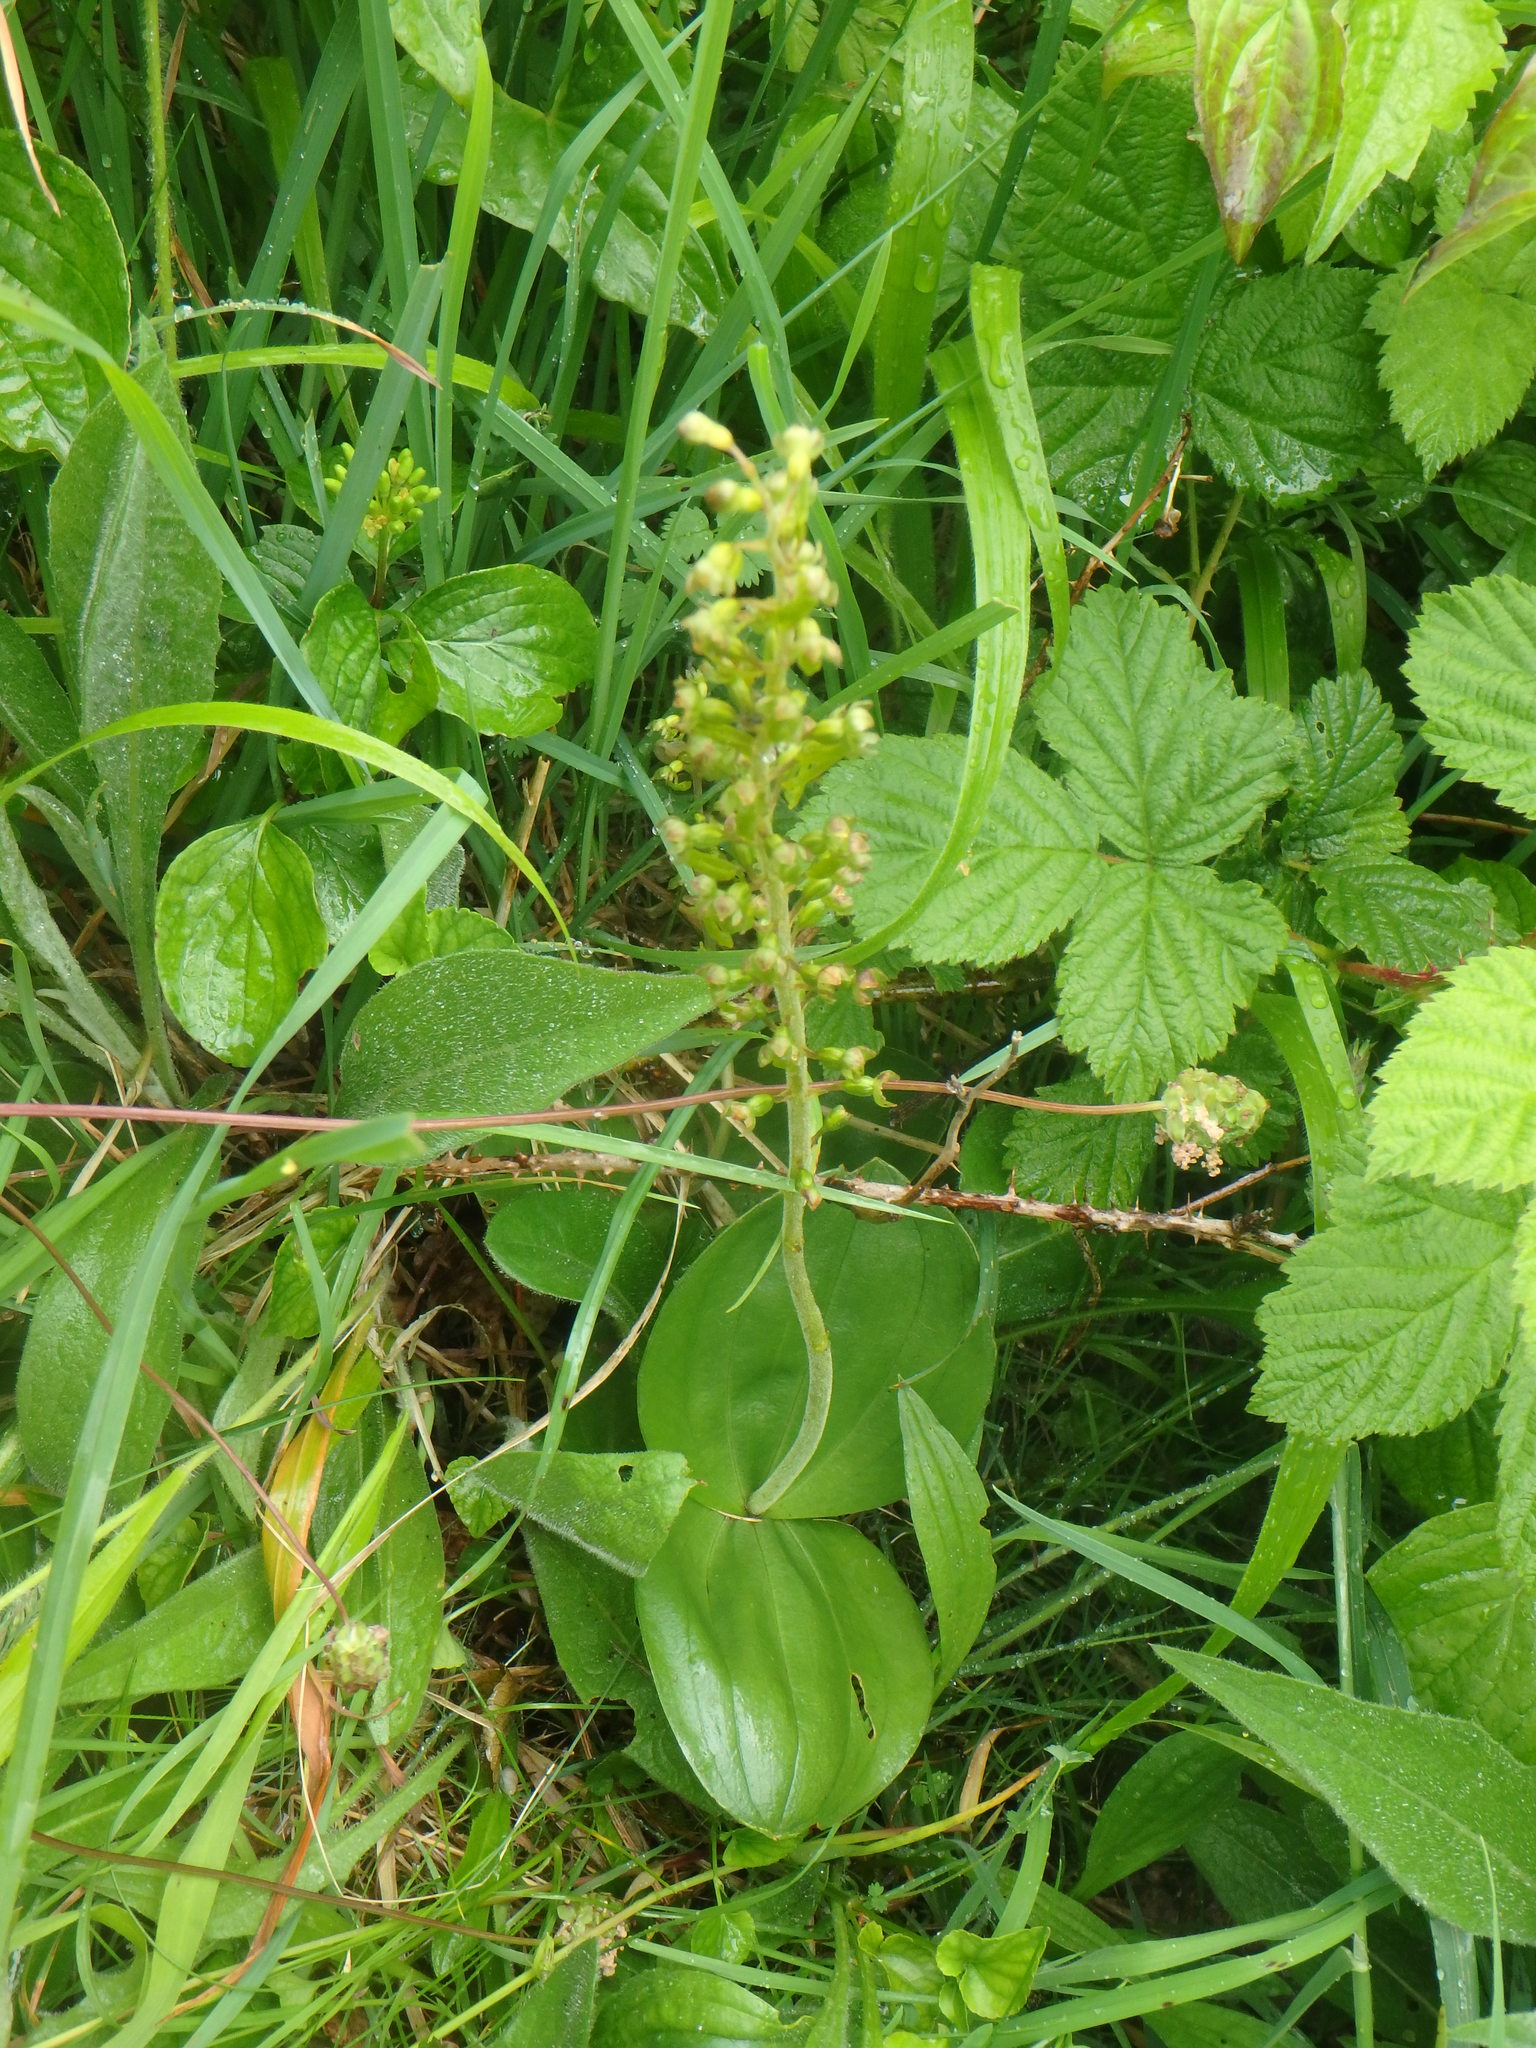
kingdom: Plantae
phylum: Tracheophyta
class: Liliopsida
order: Asparagales
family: Orchidaceae
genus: Neottia
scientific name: Neottia ovata
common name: Common twayblade
